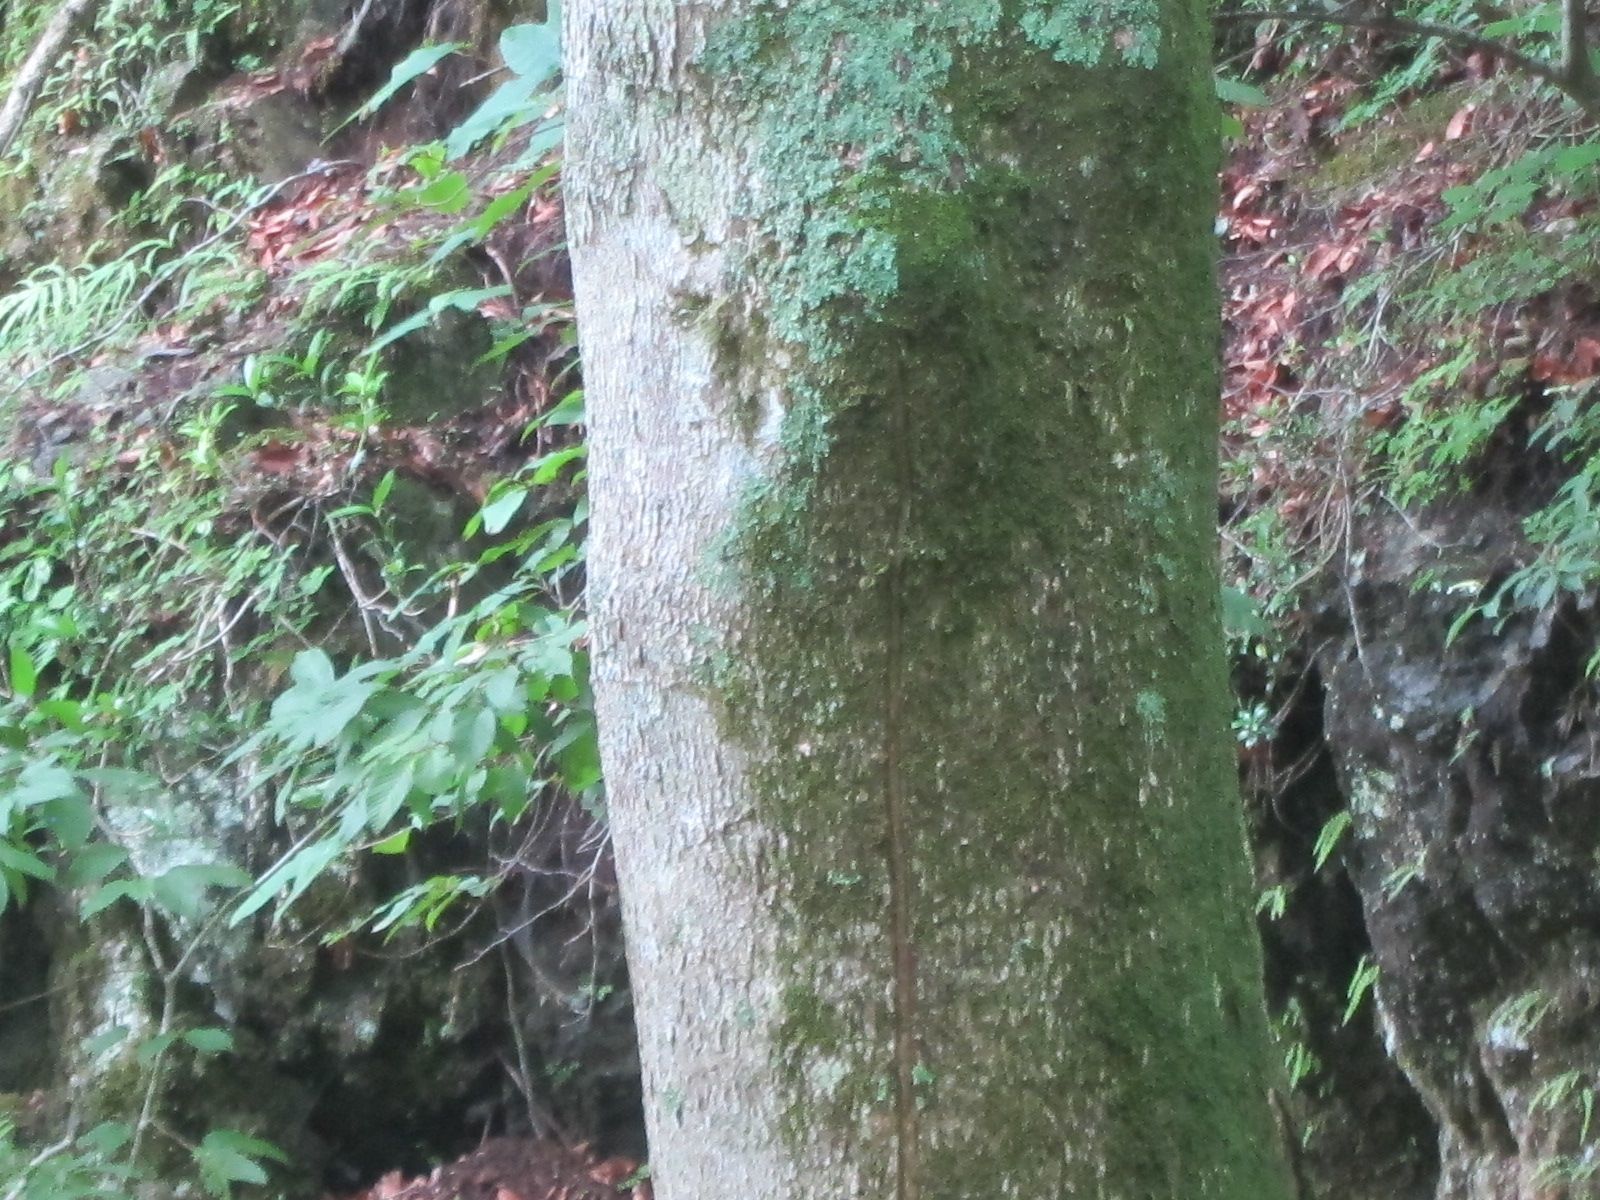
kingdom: Plantae
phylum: Tracheophyta
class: Magnoliopsida
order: Sapindales
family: Sapindaceae
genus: Aesculus
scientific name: Aesculus turbinata
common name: Japanese horse-chestnut
